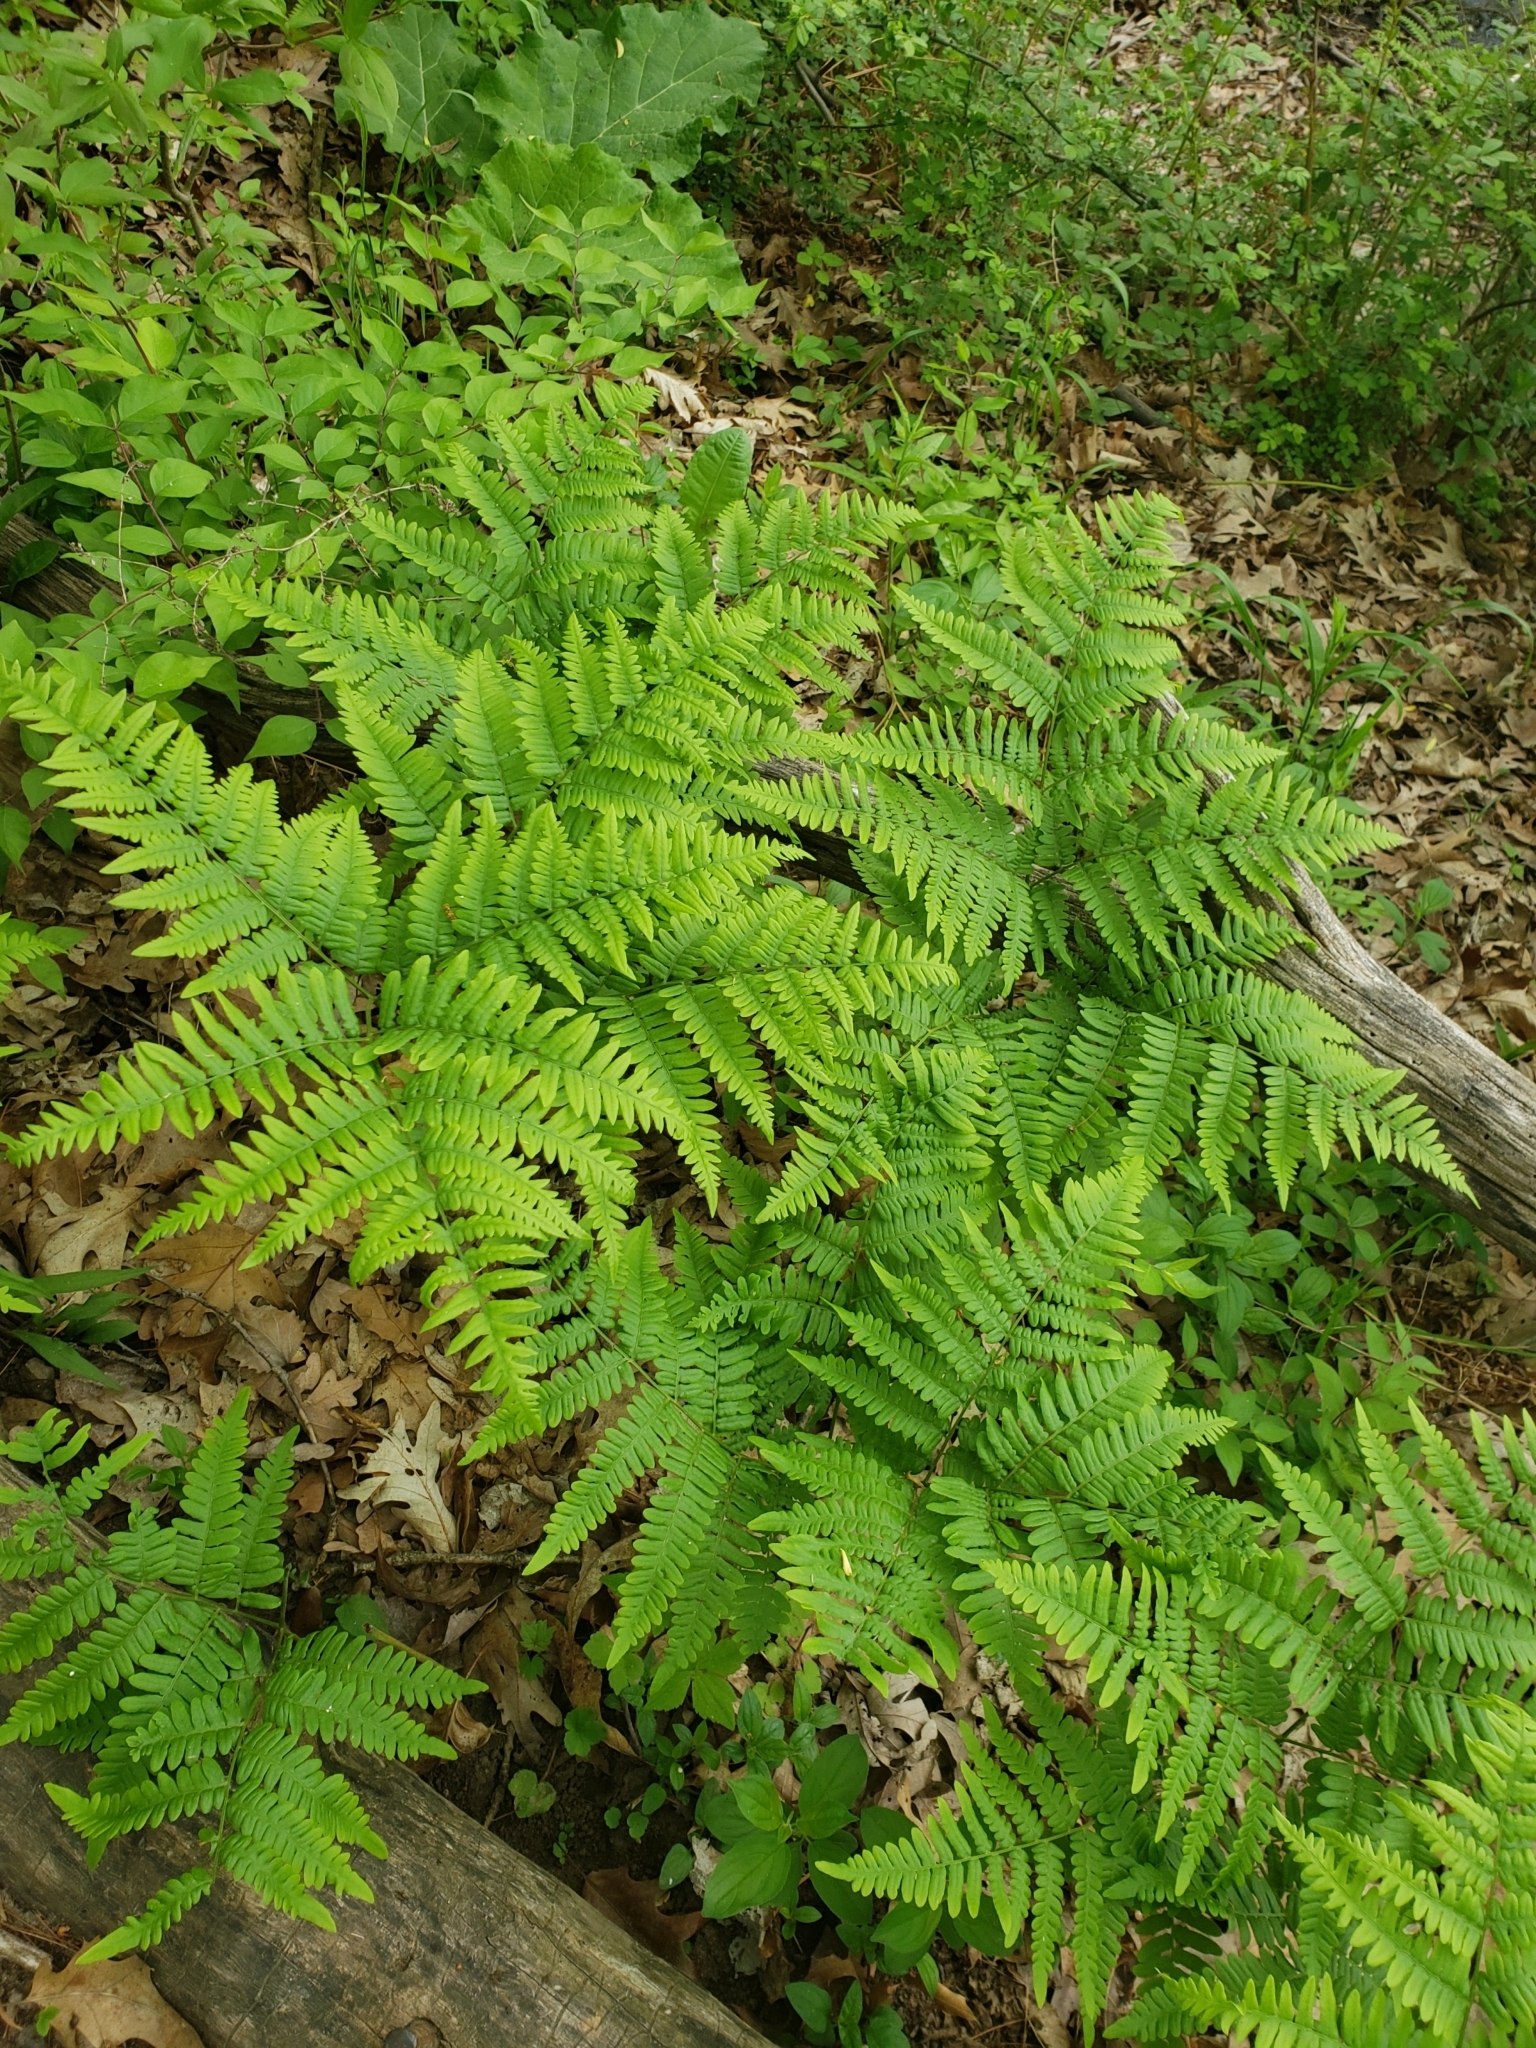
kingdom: Plantae
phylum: Tracheophyta
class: Polypodiopsida
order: Polypodiales
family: Dennstaedtiaceae
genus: Pteridium
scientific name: Pteridium aquilinum
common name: Bracken
